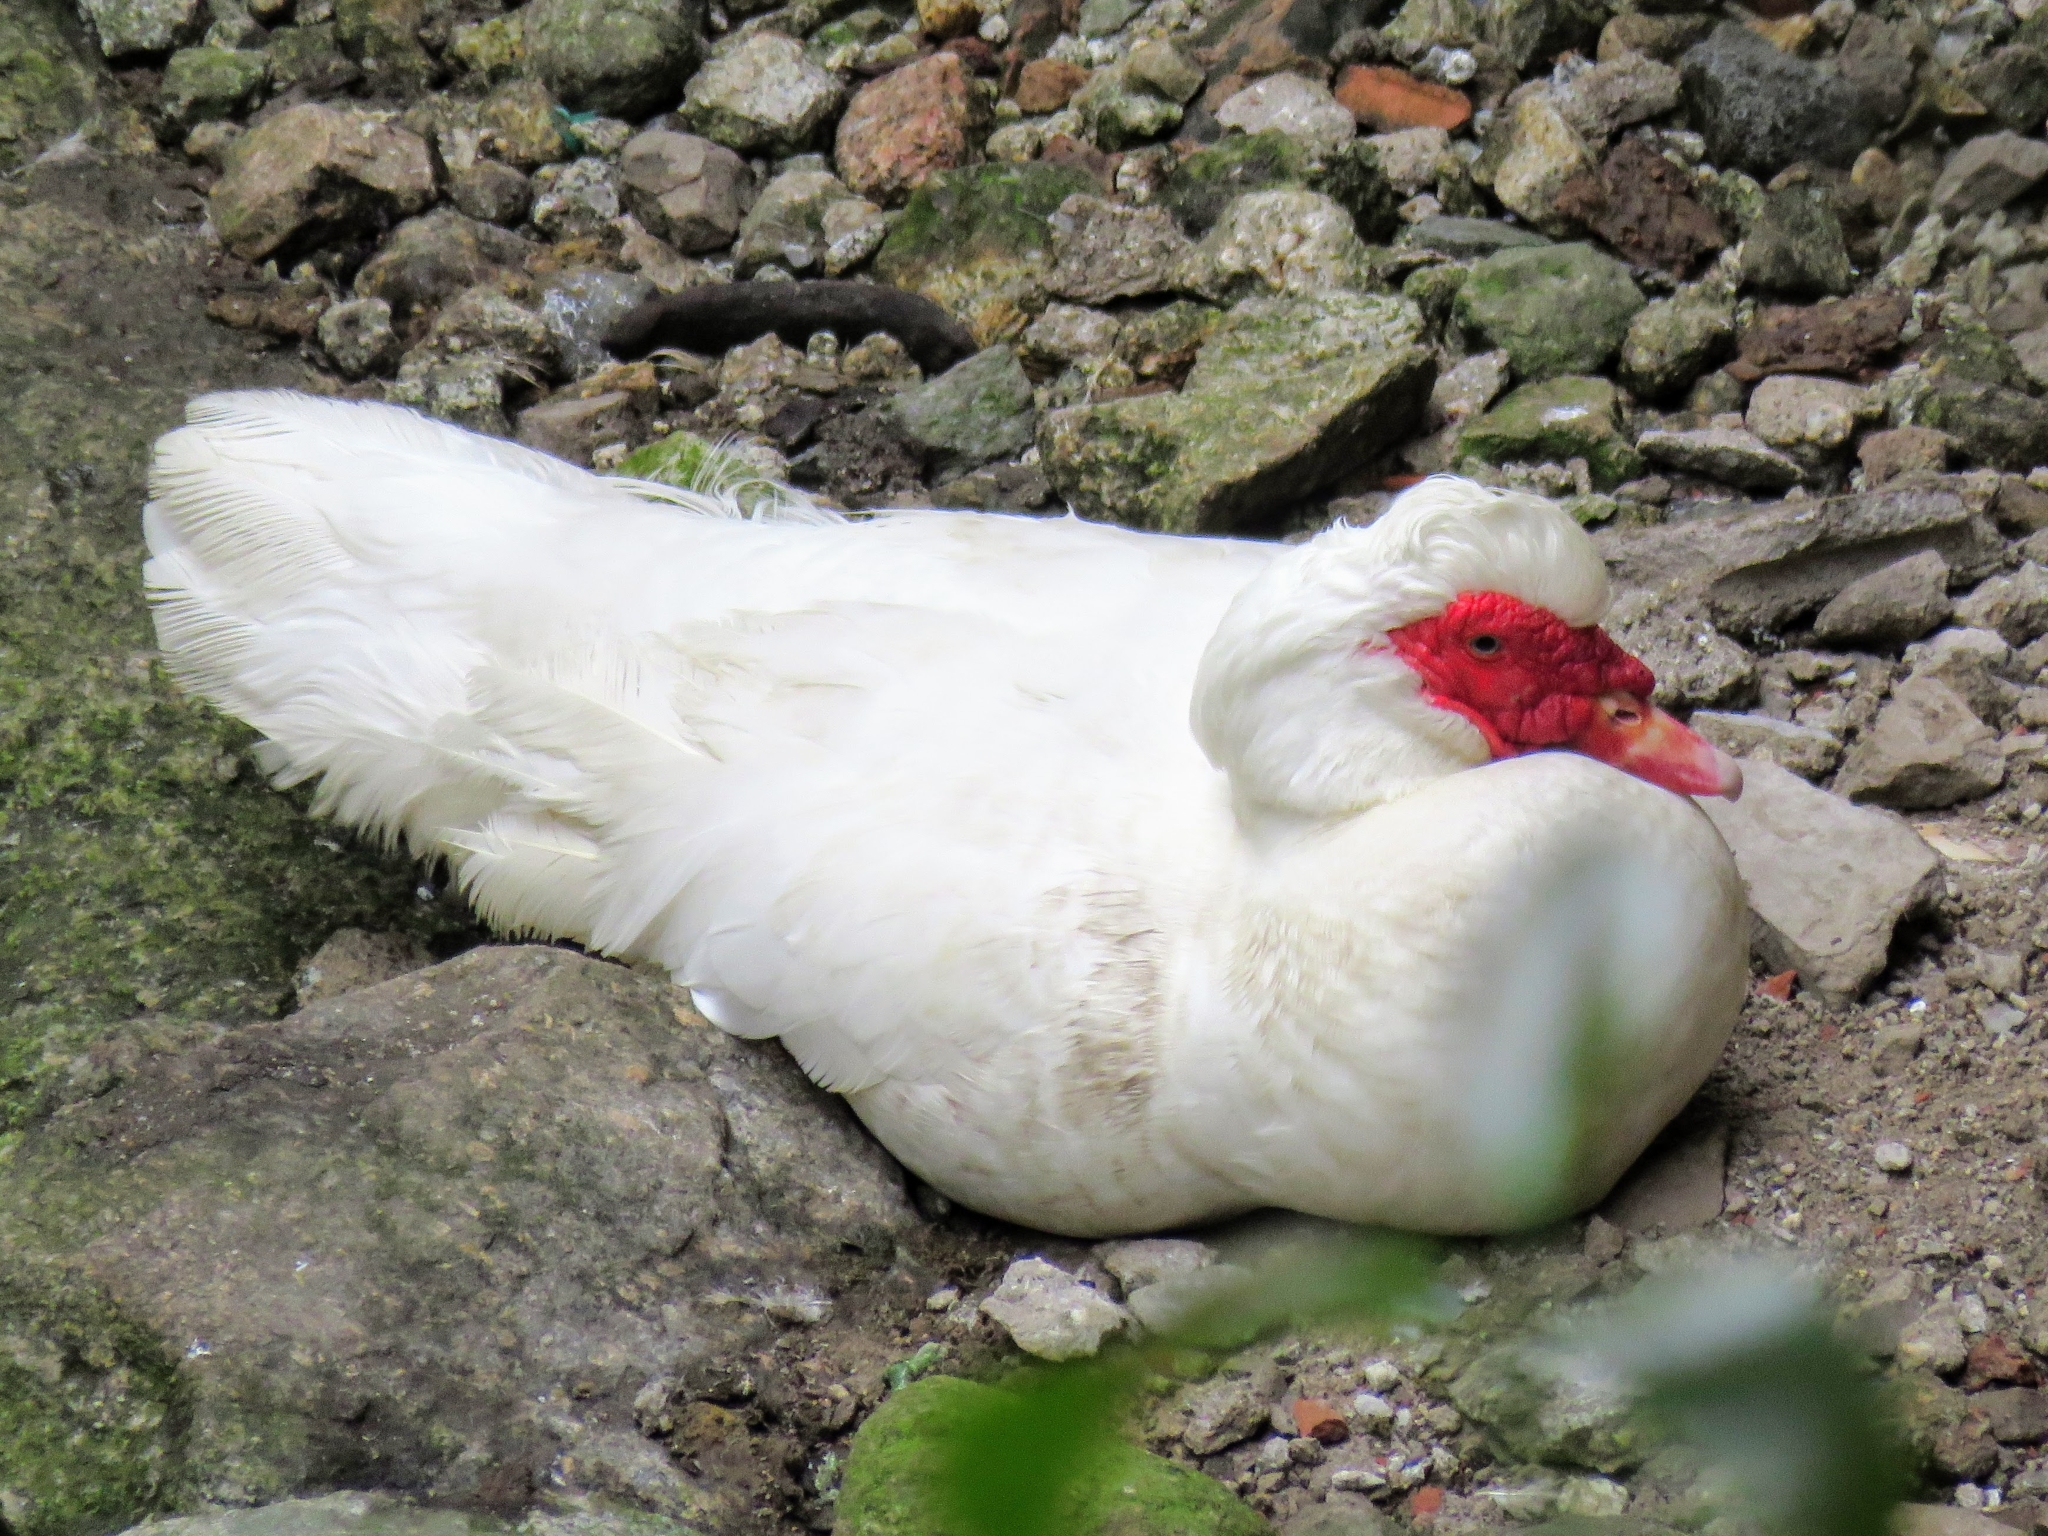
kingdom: Animalia
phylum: Chordata
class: Aves
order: Anseriformes
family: Anatidae
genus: Cairina
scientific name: Cairina moschata
